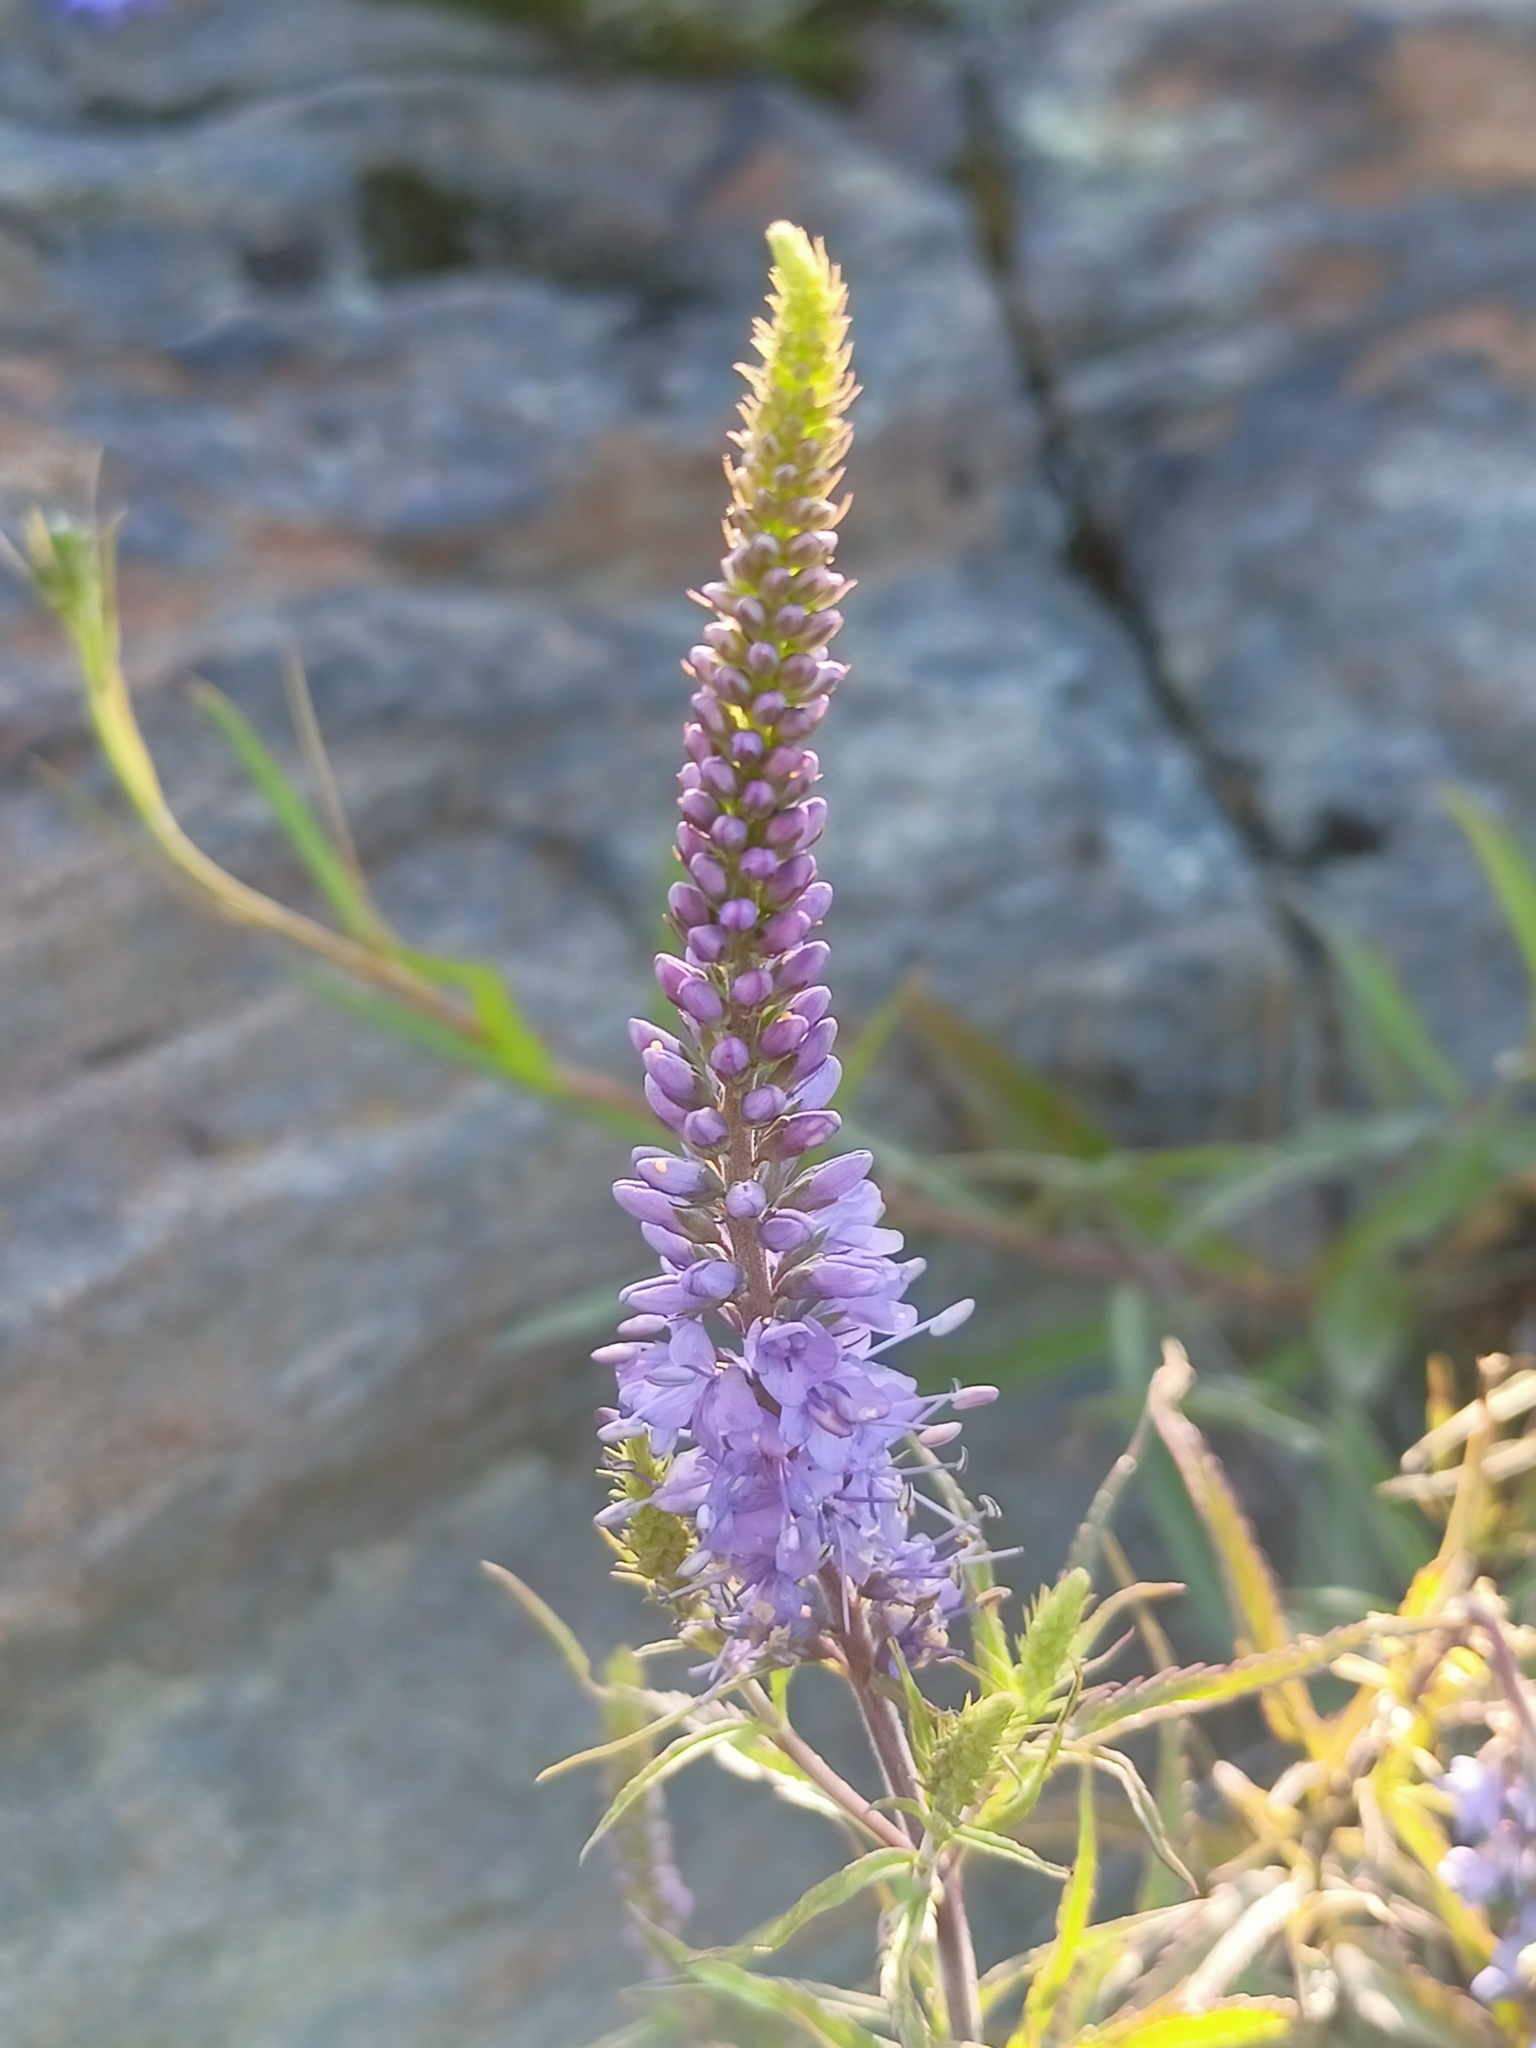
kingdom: Plantae
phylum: Tracheophyta
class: Magnoliopsida
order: Lamiales
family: Plantaginaceae
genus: Veronica
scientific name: Veronica longifolia
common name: Garden speedwell
